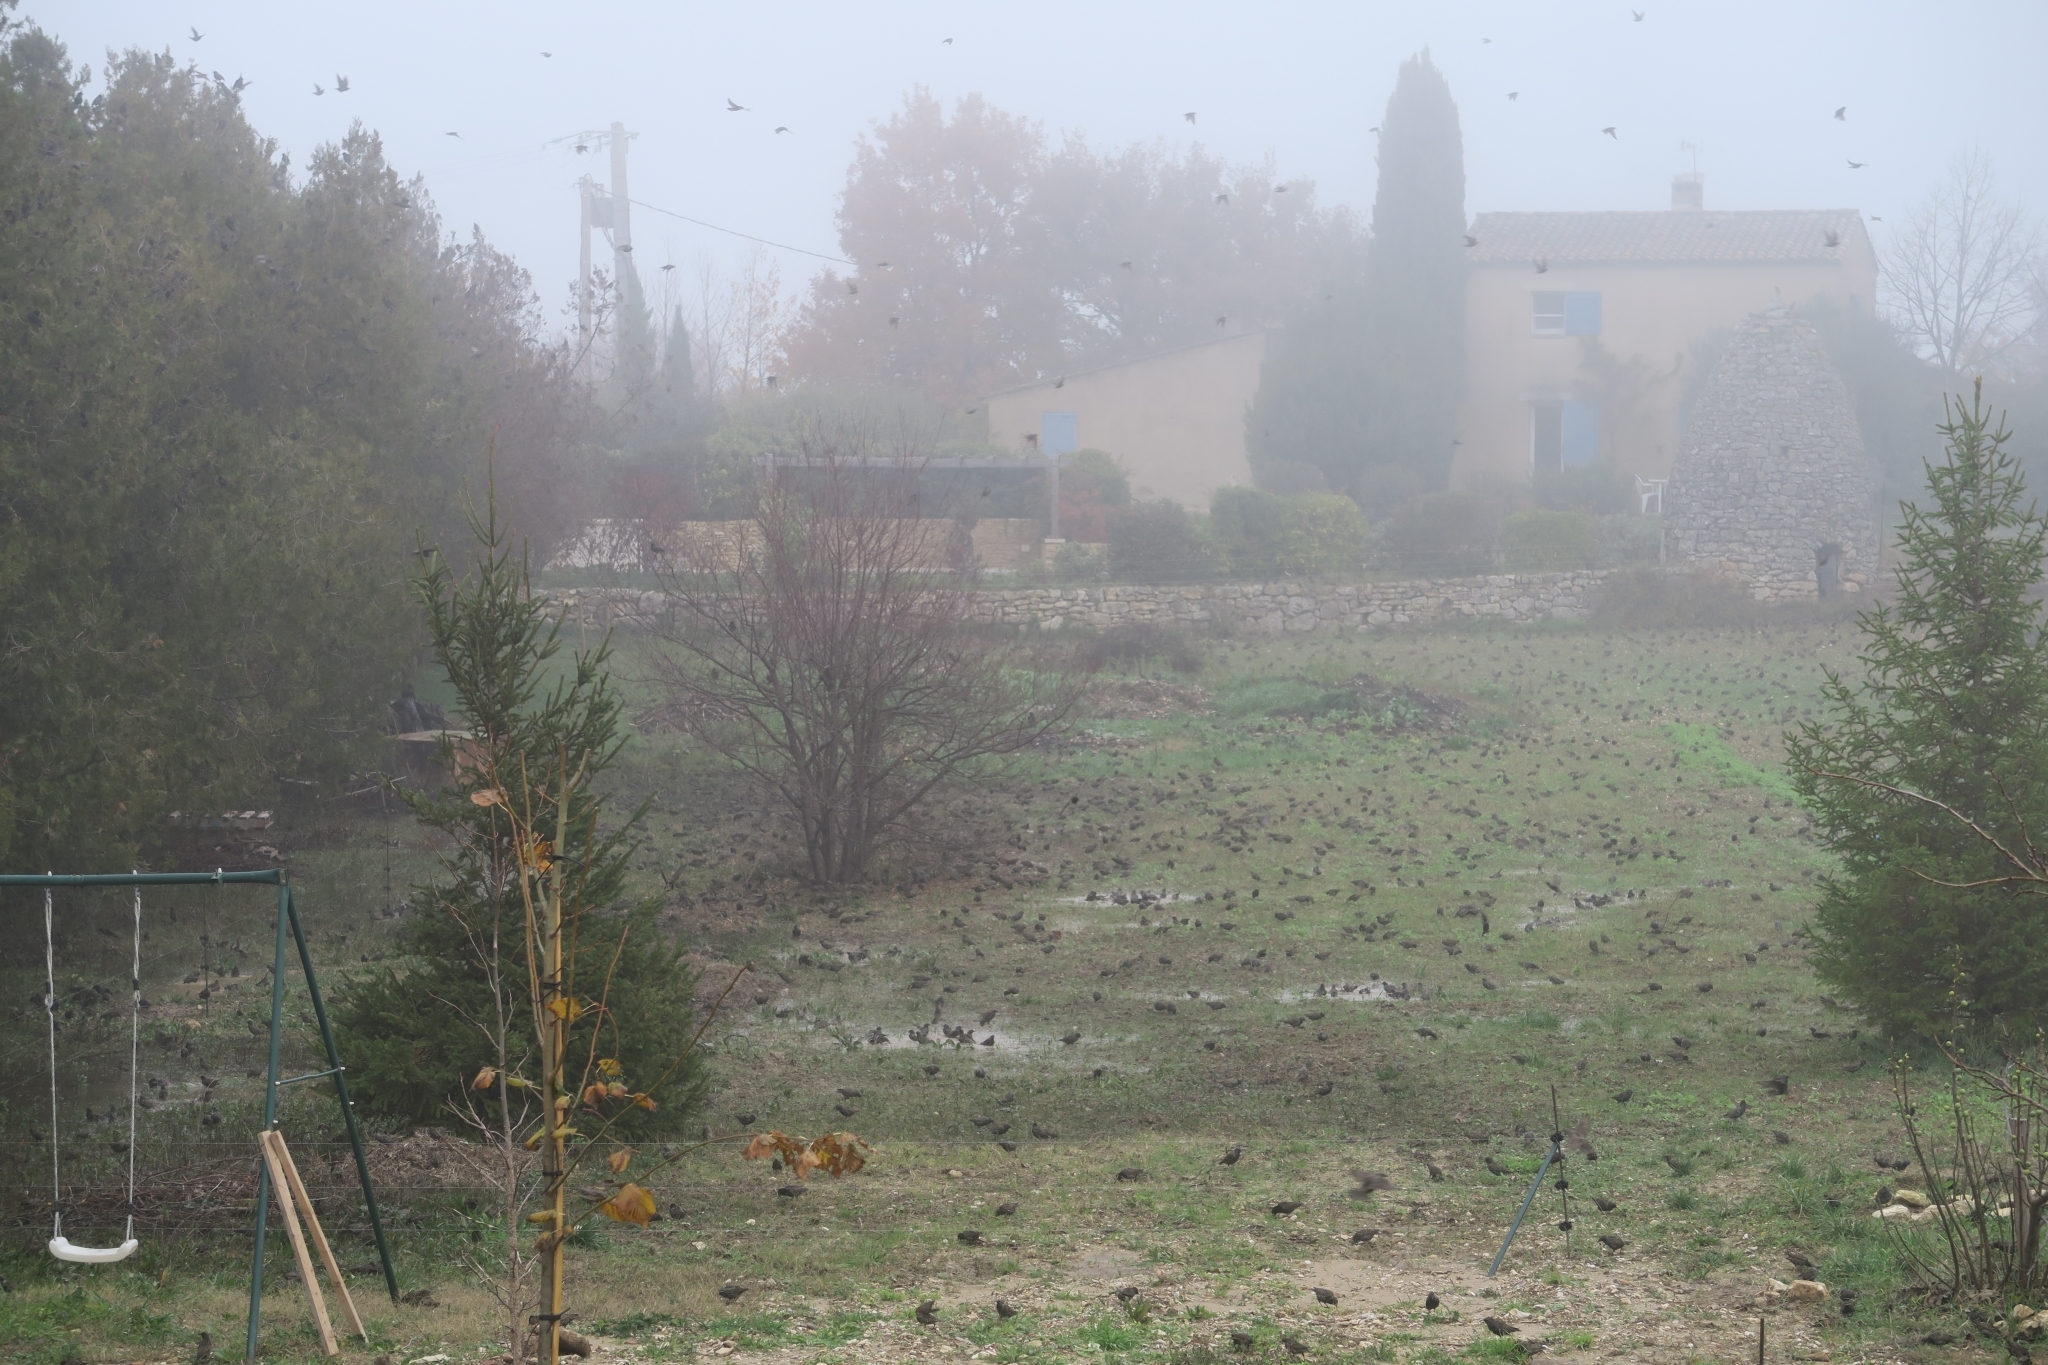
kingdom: Animalia
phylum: Chordata
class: Aves
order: Passeriformes
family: Sturnidae
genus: Sturnus
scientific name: Sturnus vulgaris
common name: Common starling
